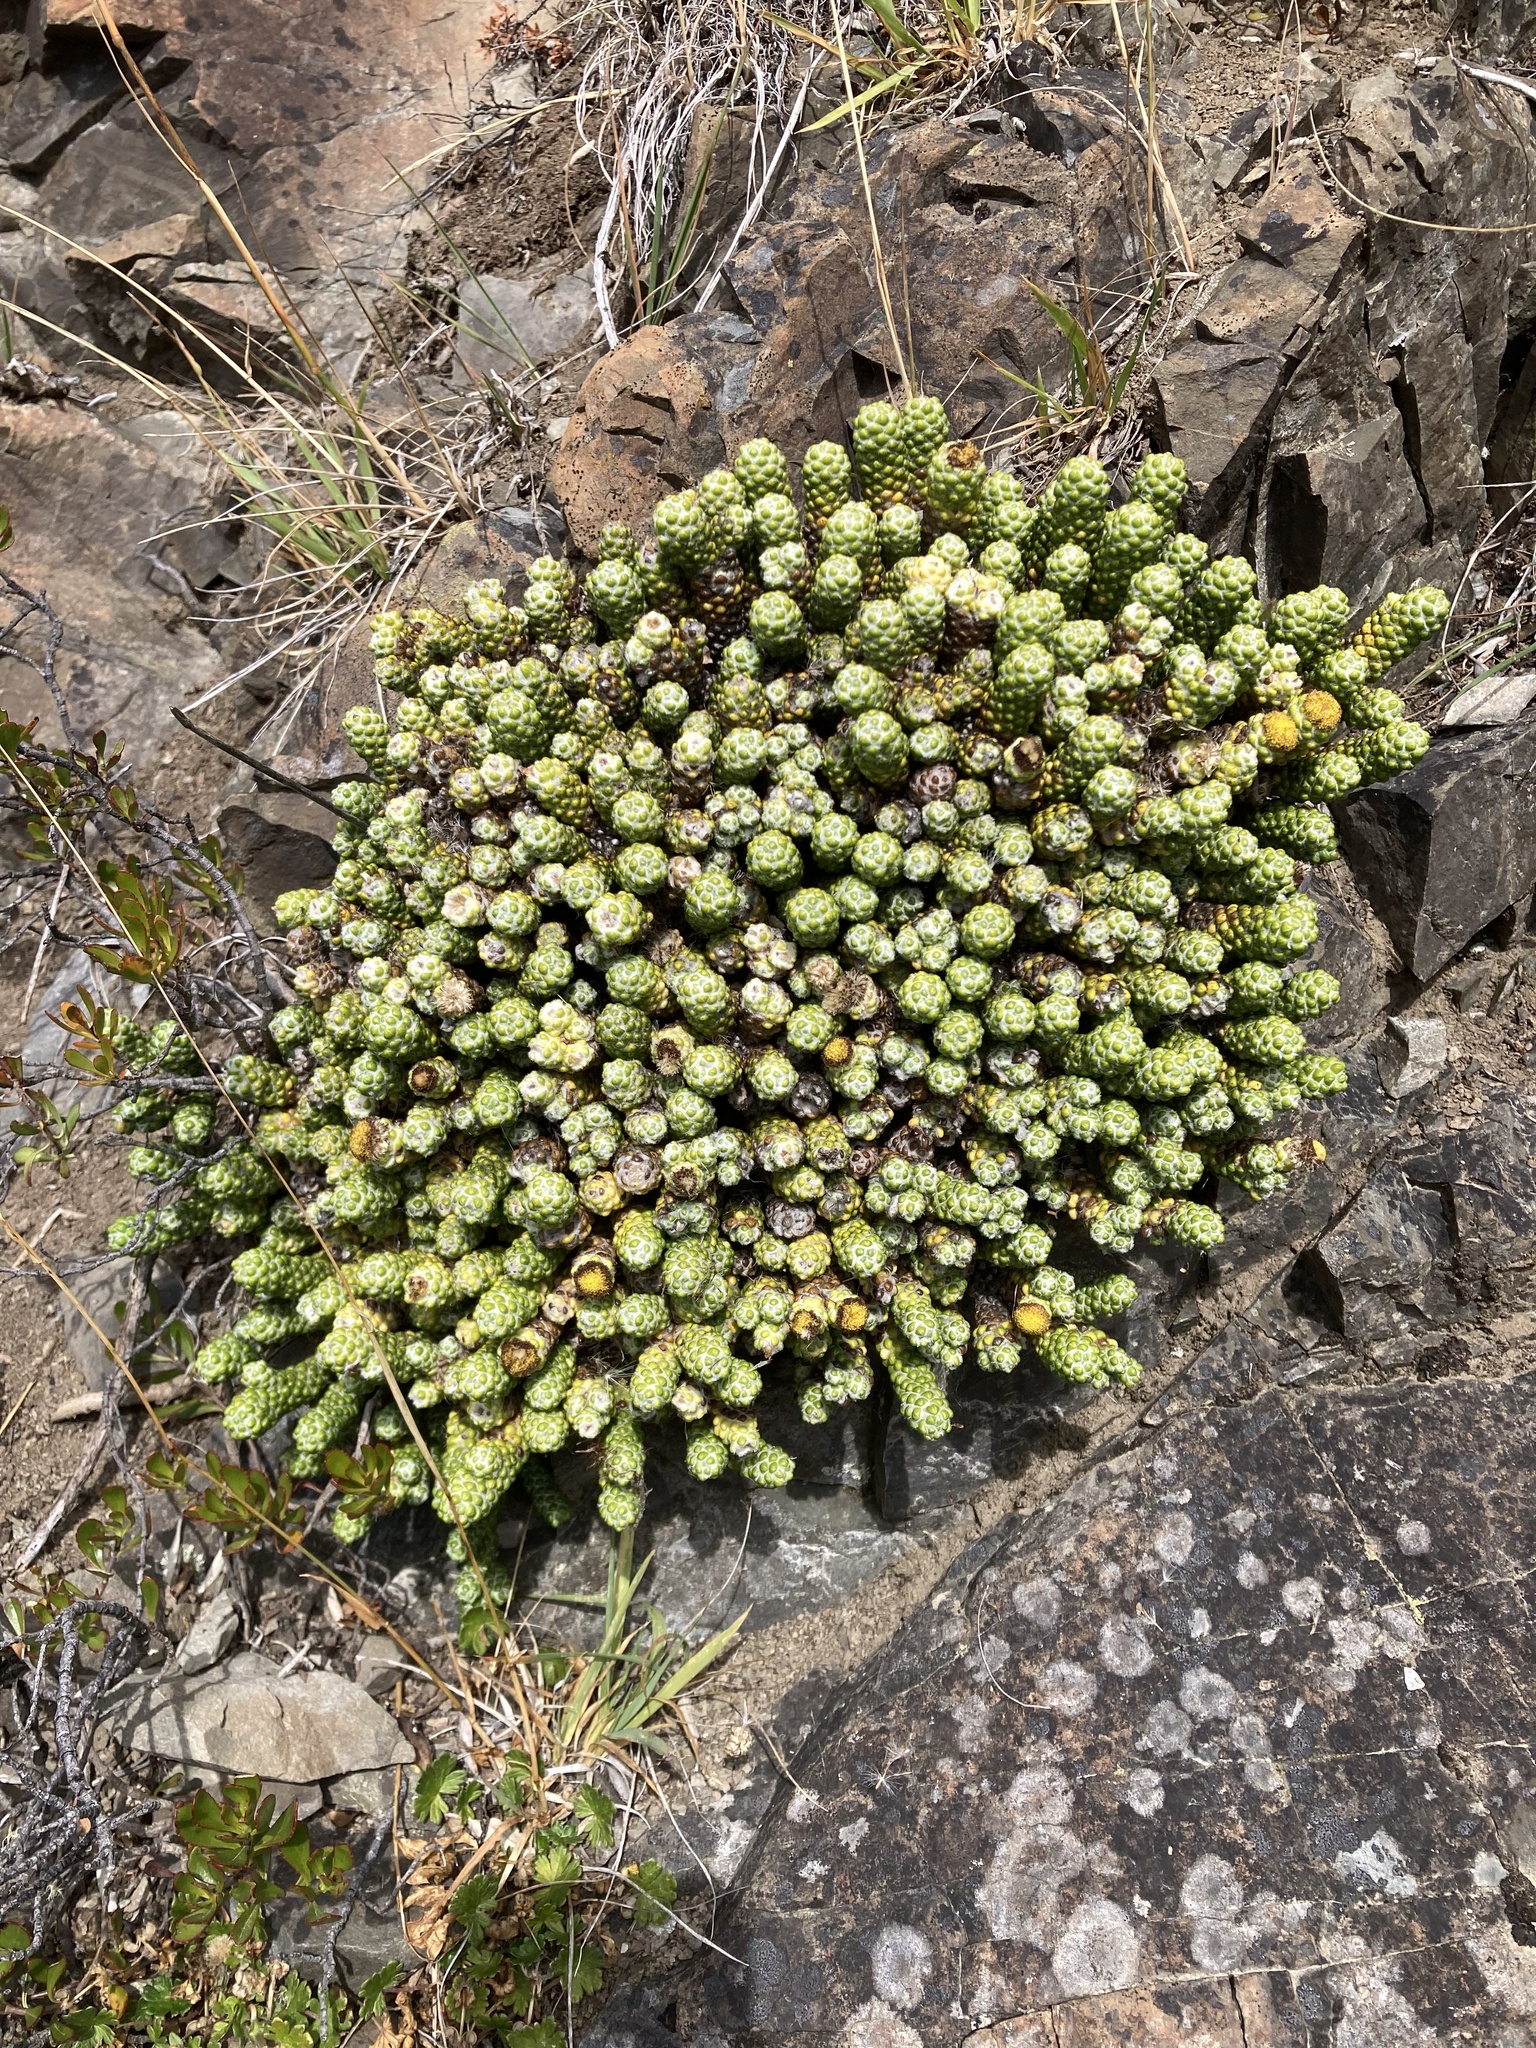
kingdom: Plantae
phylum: Tracheophyta
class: Magnoliopsida
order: Asterales
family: Asteraceae
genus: Ozothamnus
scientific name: Ozothamnus coralloides
